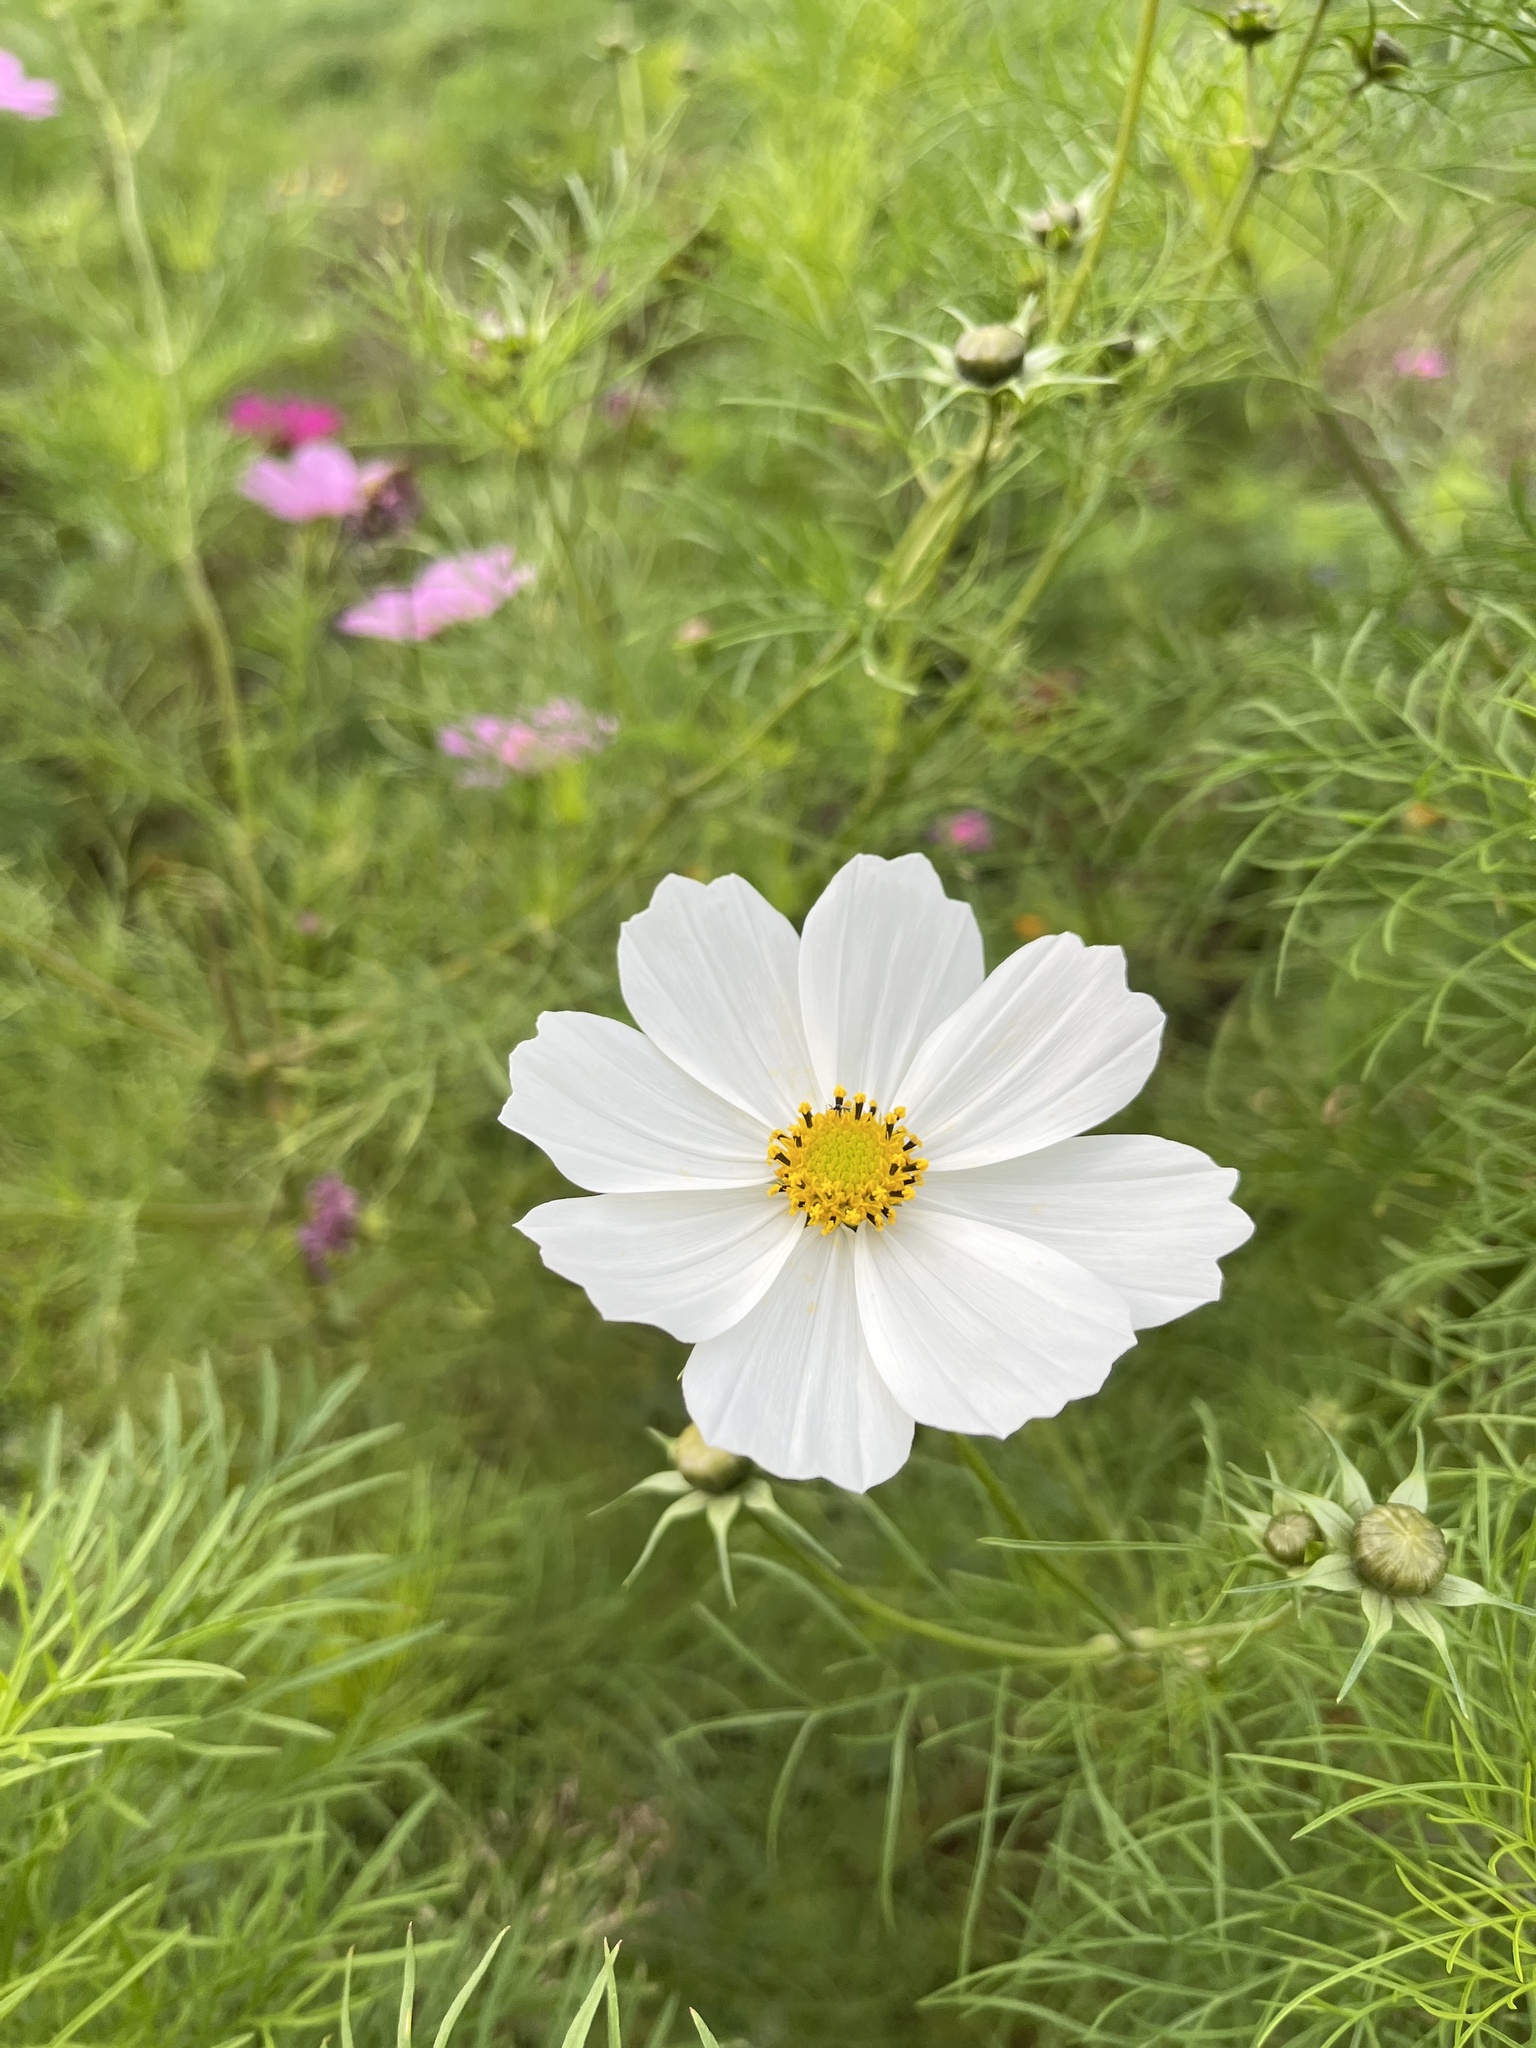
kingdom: Plantae
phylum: Tracheophyta
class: Magnoliopsida
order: Asterales
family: Asteraceae
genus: Cosmos
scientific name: Cosmos bipinnatus
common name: Garden cosmos
